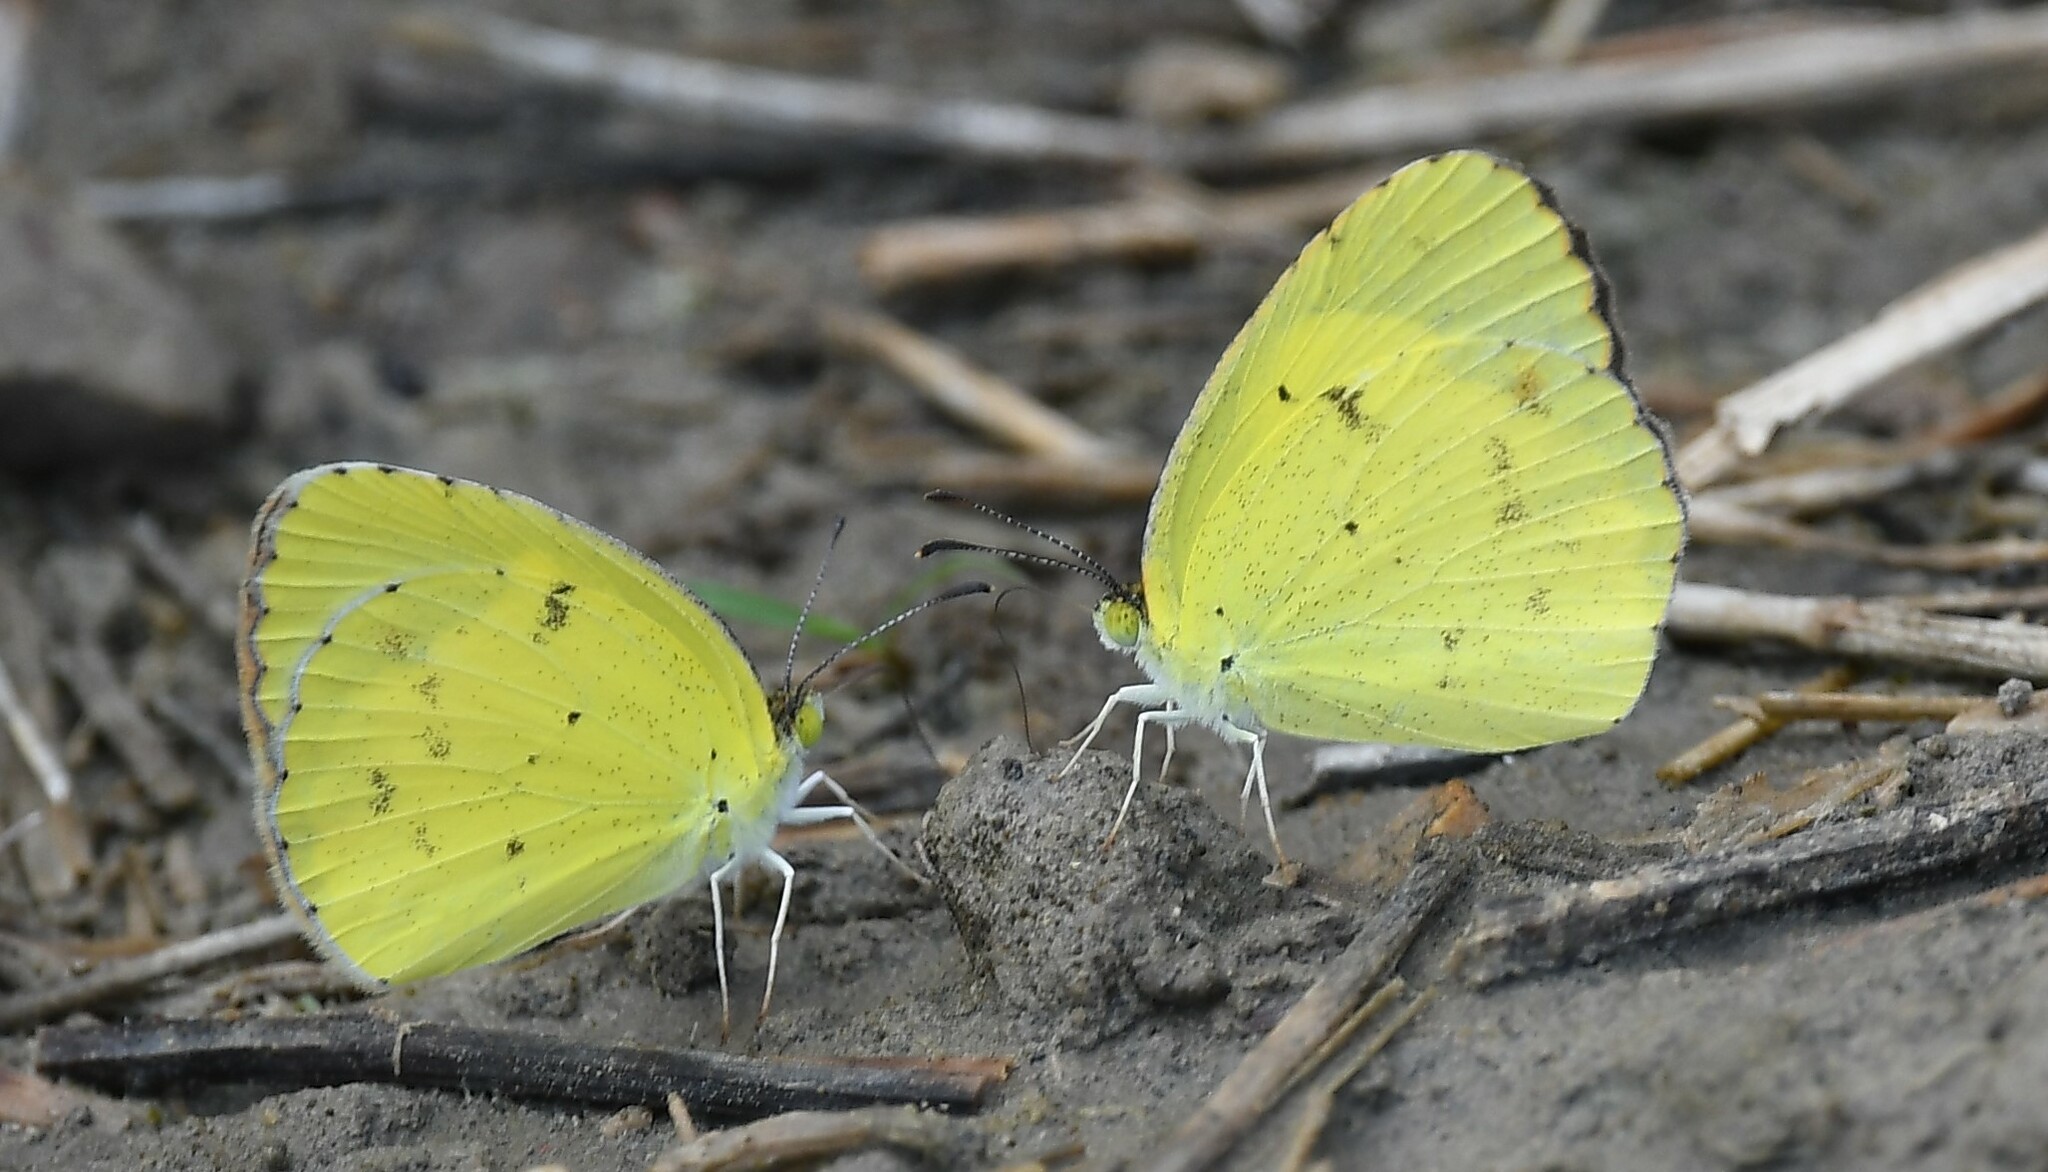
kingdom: Animalia
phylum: Arthropoda
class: Insecta
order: Lepidoptera
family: Pieridae
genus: Pyrisitia
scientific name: Pyrisitia lisa
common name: Little yellow
